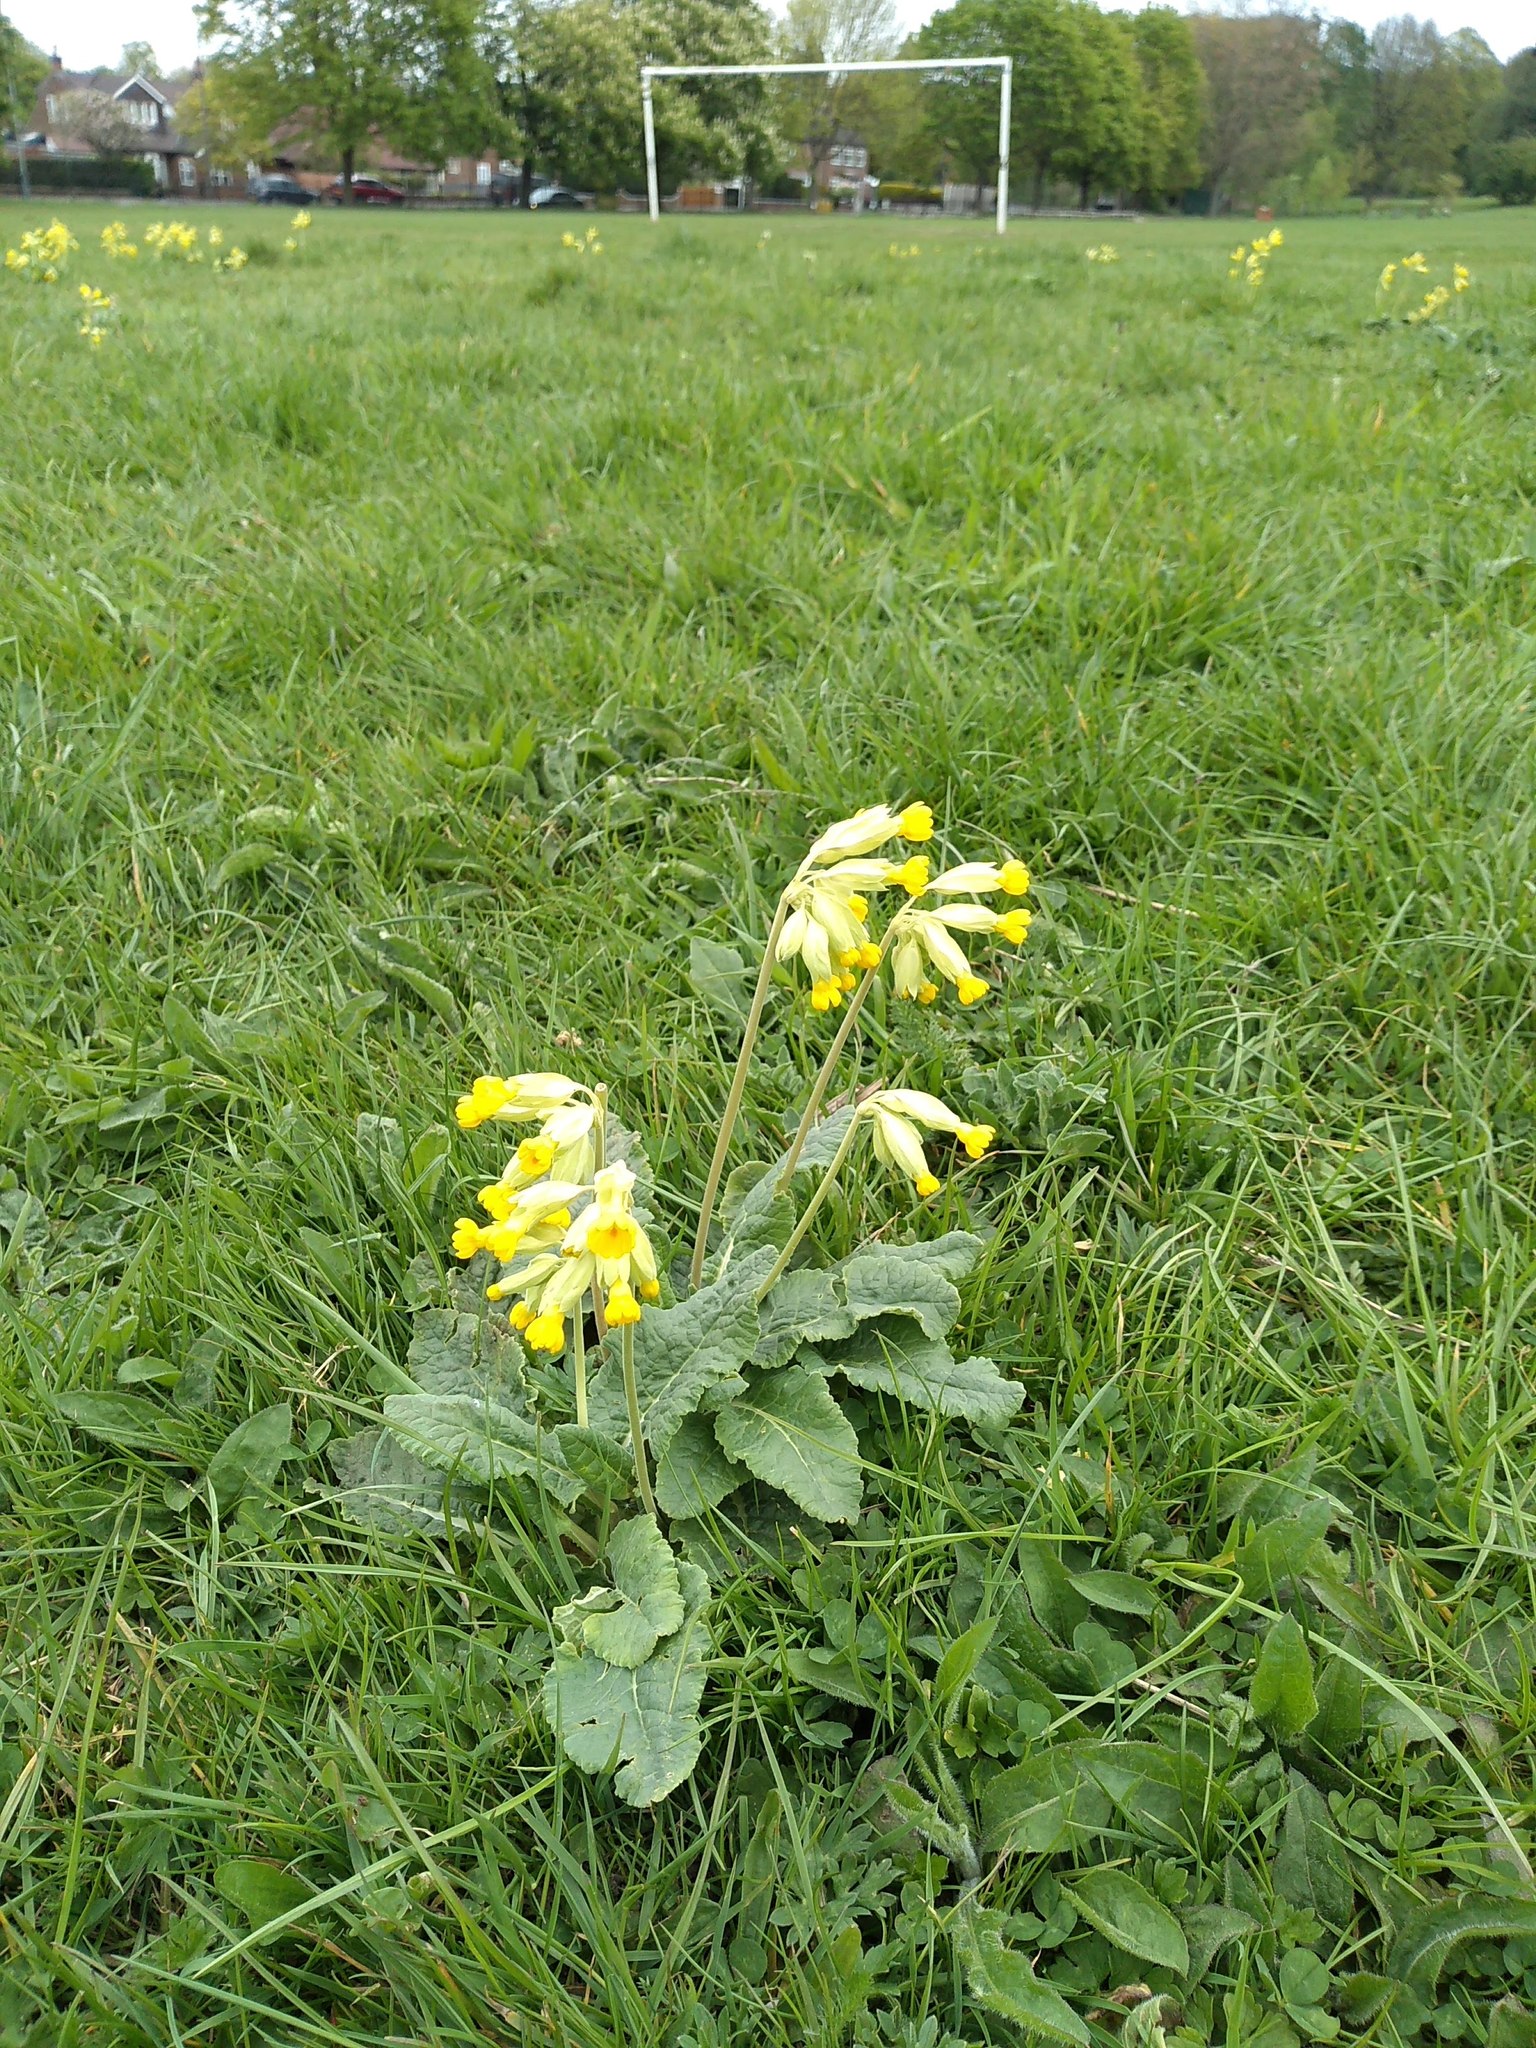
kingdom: Plantae
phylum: Tracheophyta
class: Magnoliopsida
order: Ericales
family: Primulaceae
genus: Primula
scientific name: Primula veris
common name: Cowslip
